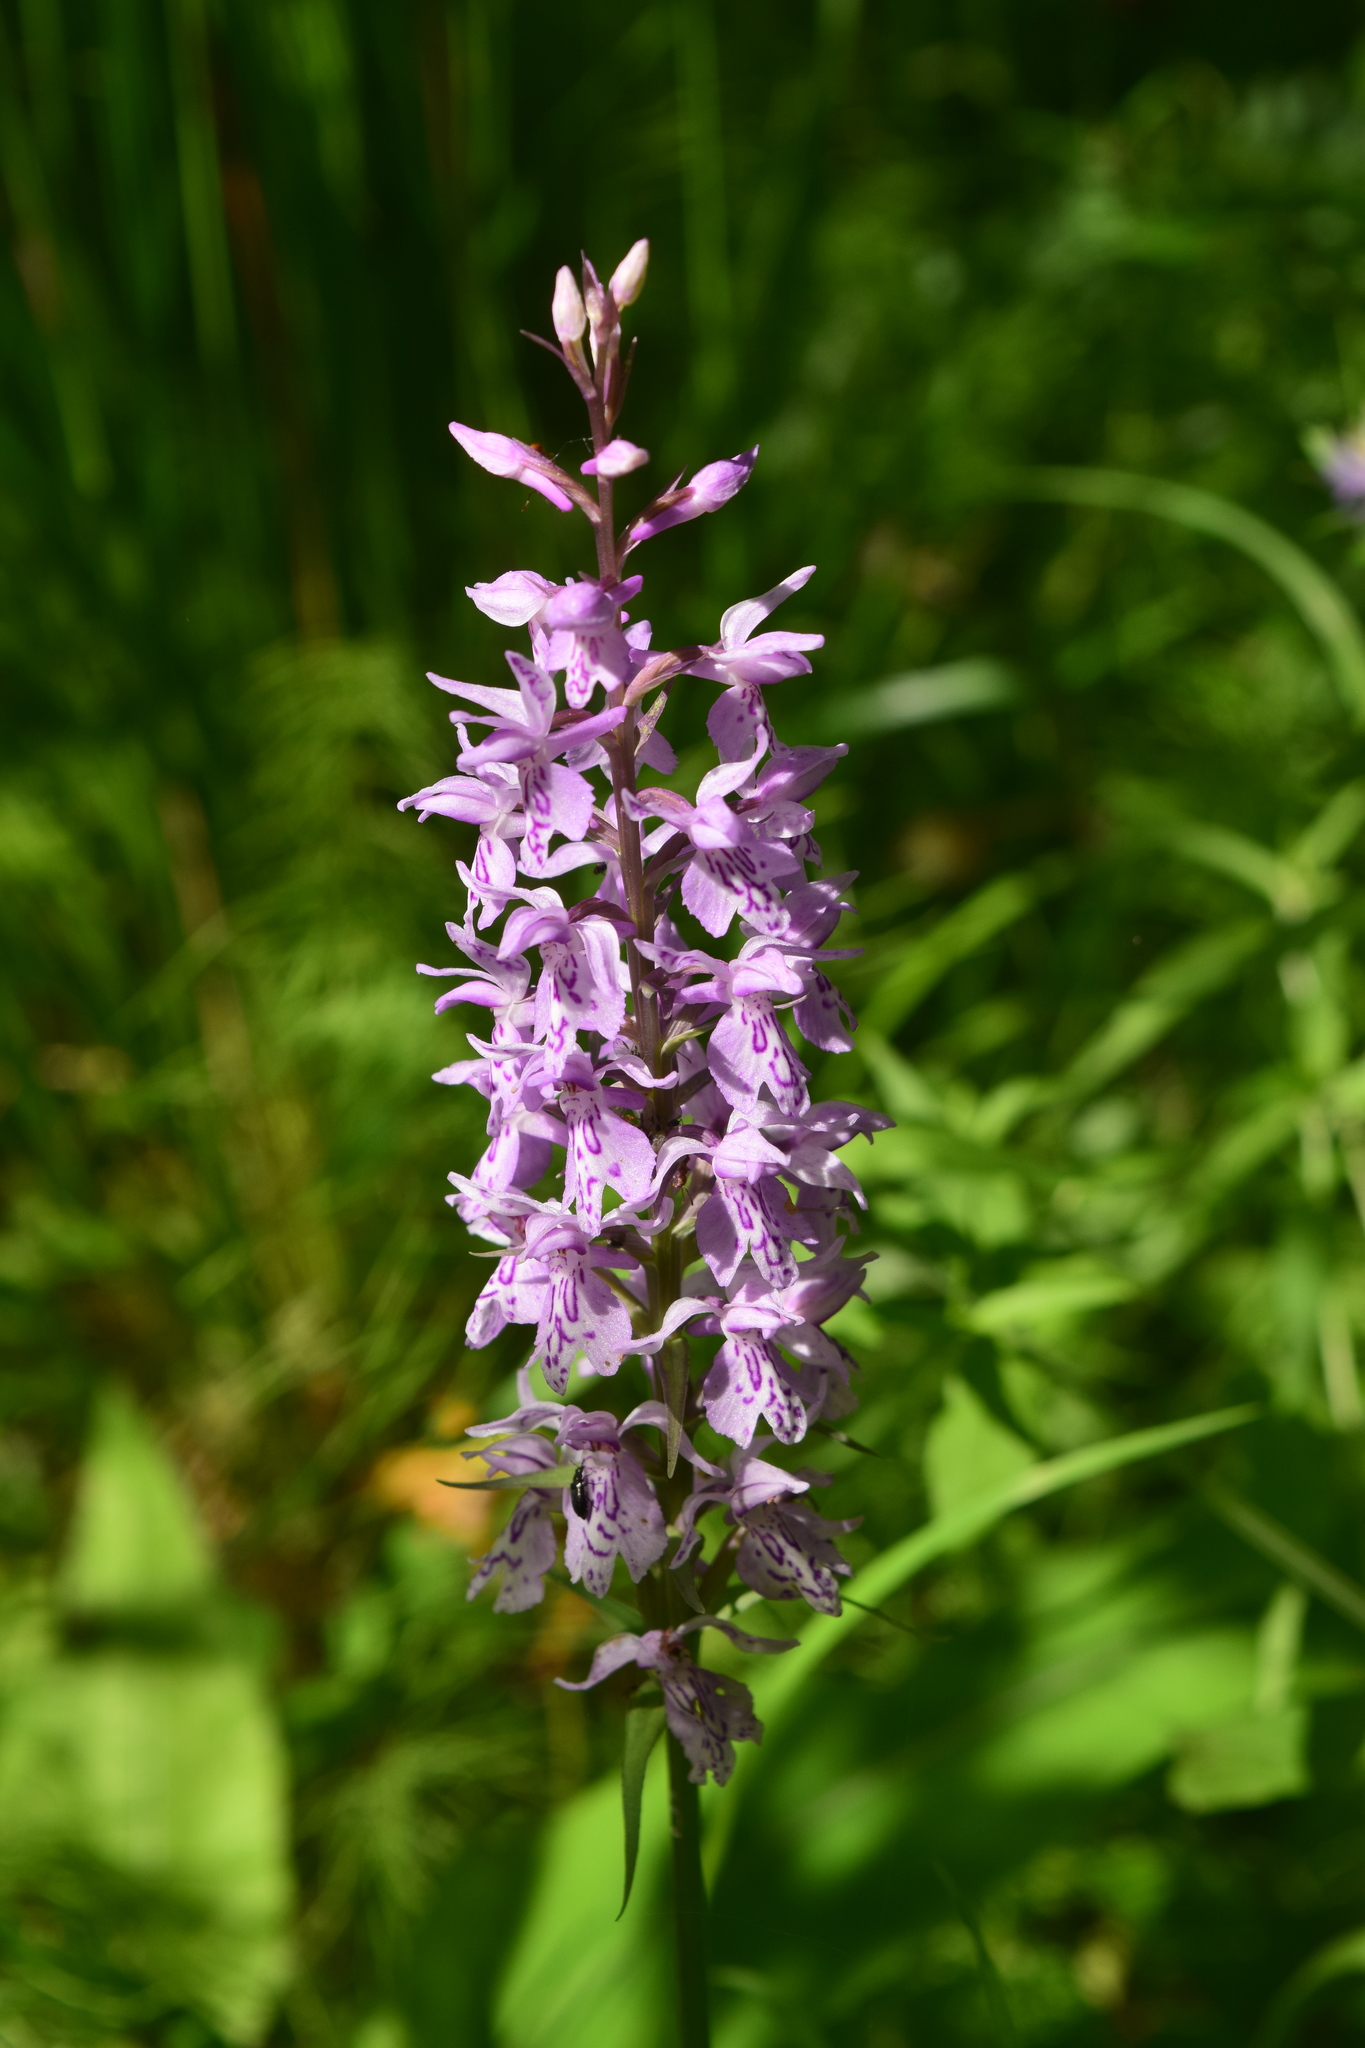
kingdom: Plantae
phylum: Tracheophyta
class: Liliopsida
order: Asparagales
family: Orchidaceae
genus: Dactylorhiza
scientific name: Dactylorhiza maculata
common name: Heath spotted-orchid
